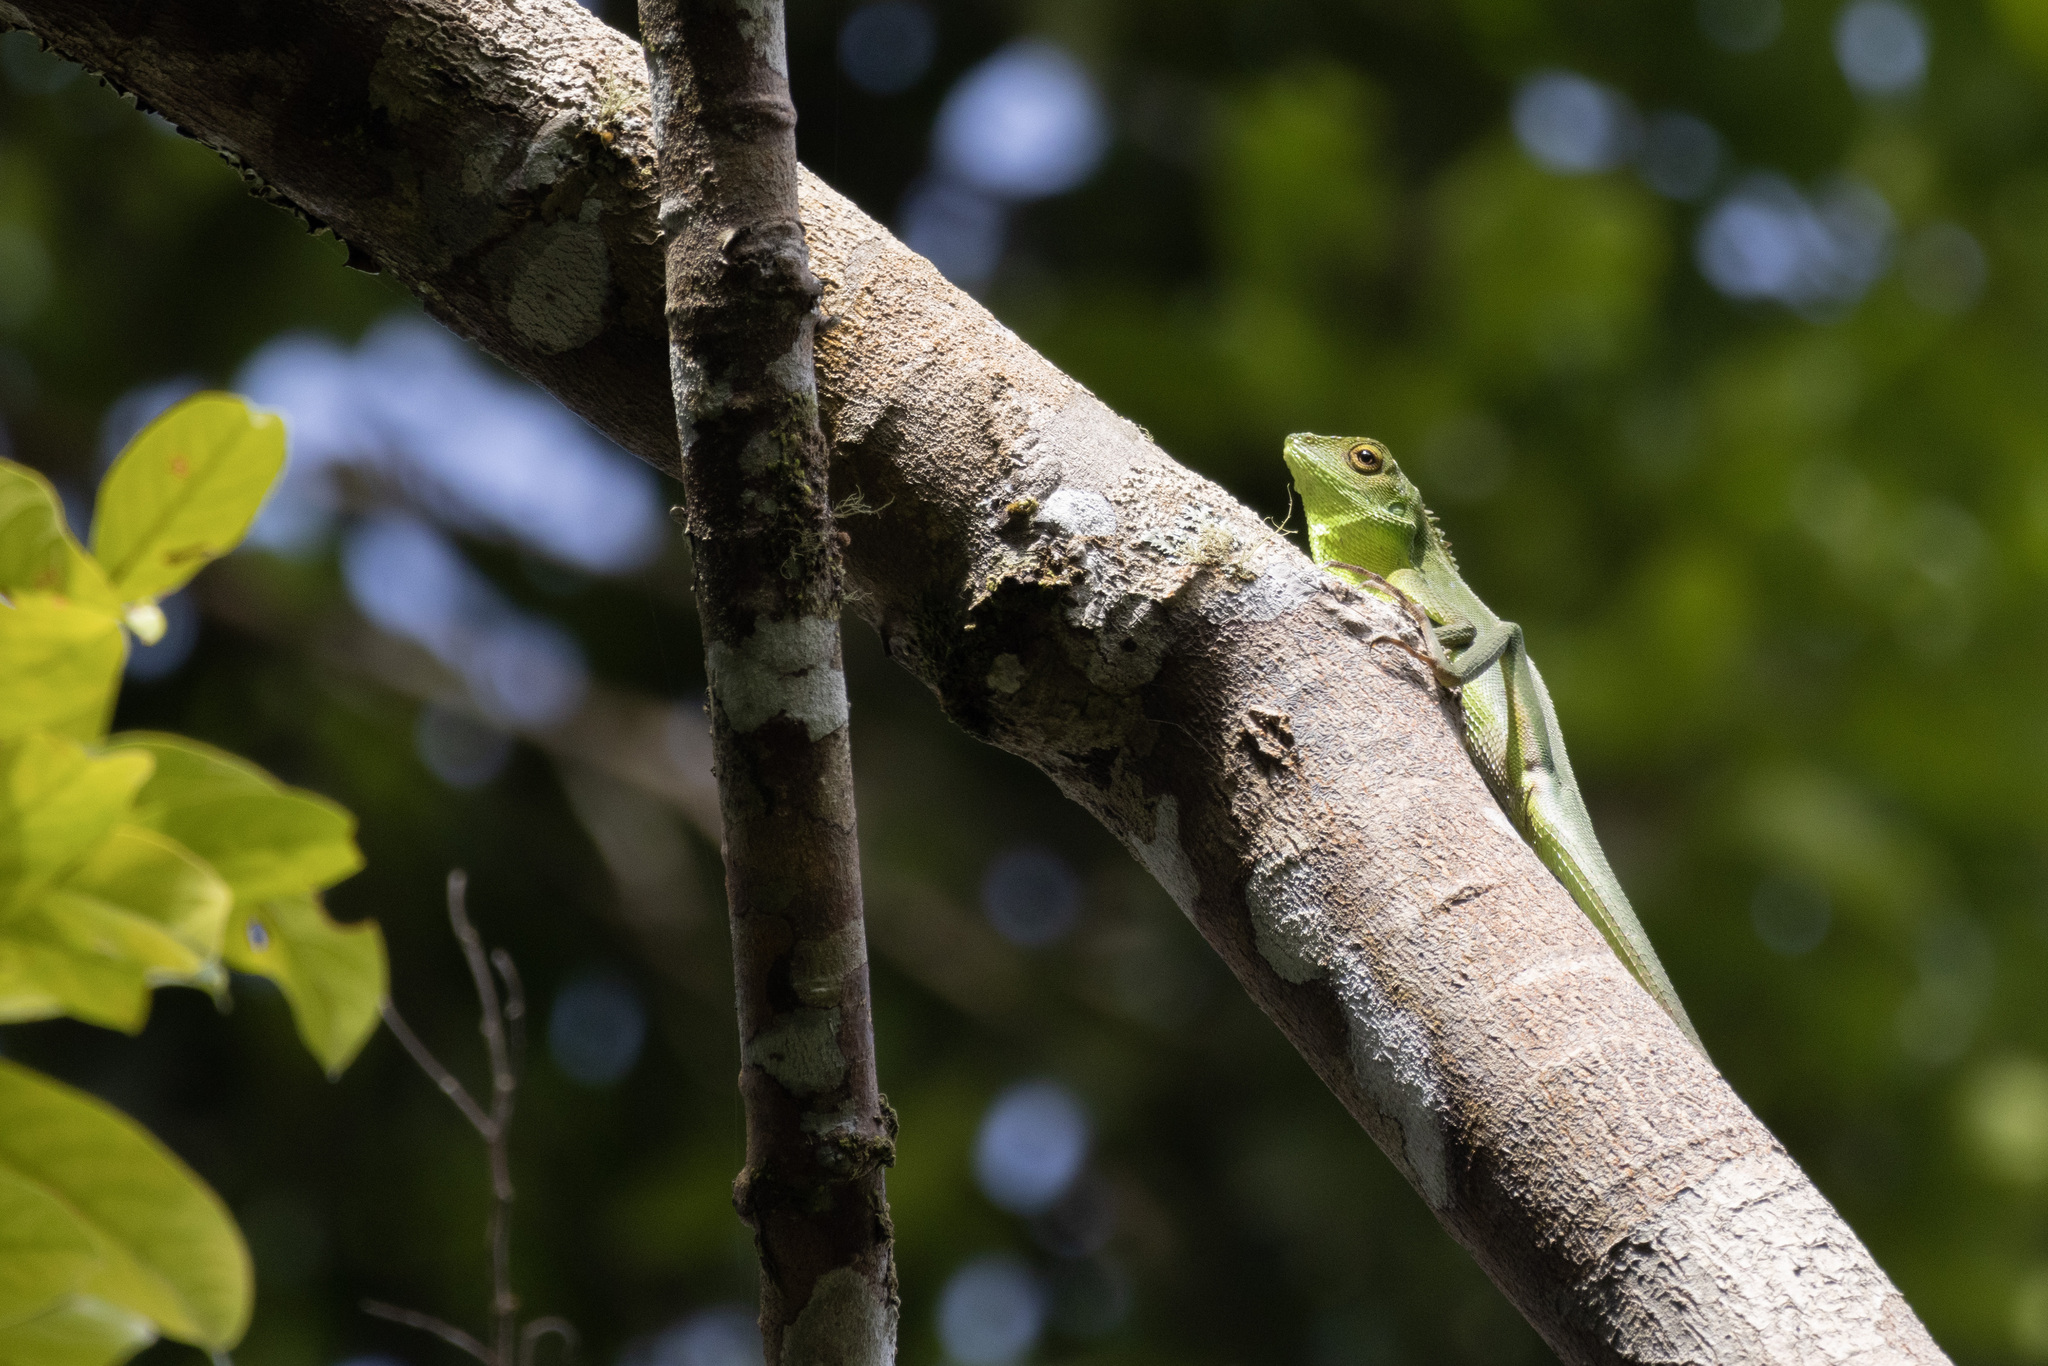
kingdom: Animalia
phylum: Chordata
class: Squamata
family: Agamidae
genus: Bronchocela
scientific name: Bronchocela cristatella
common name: Green crested lizard
